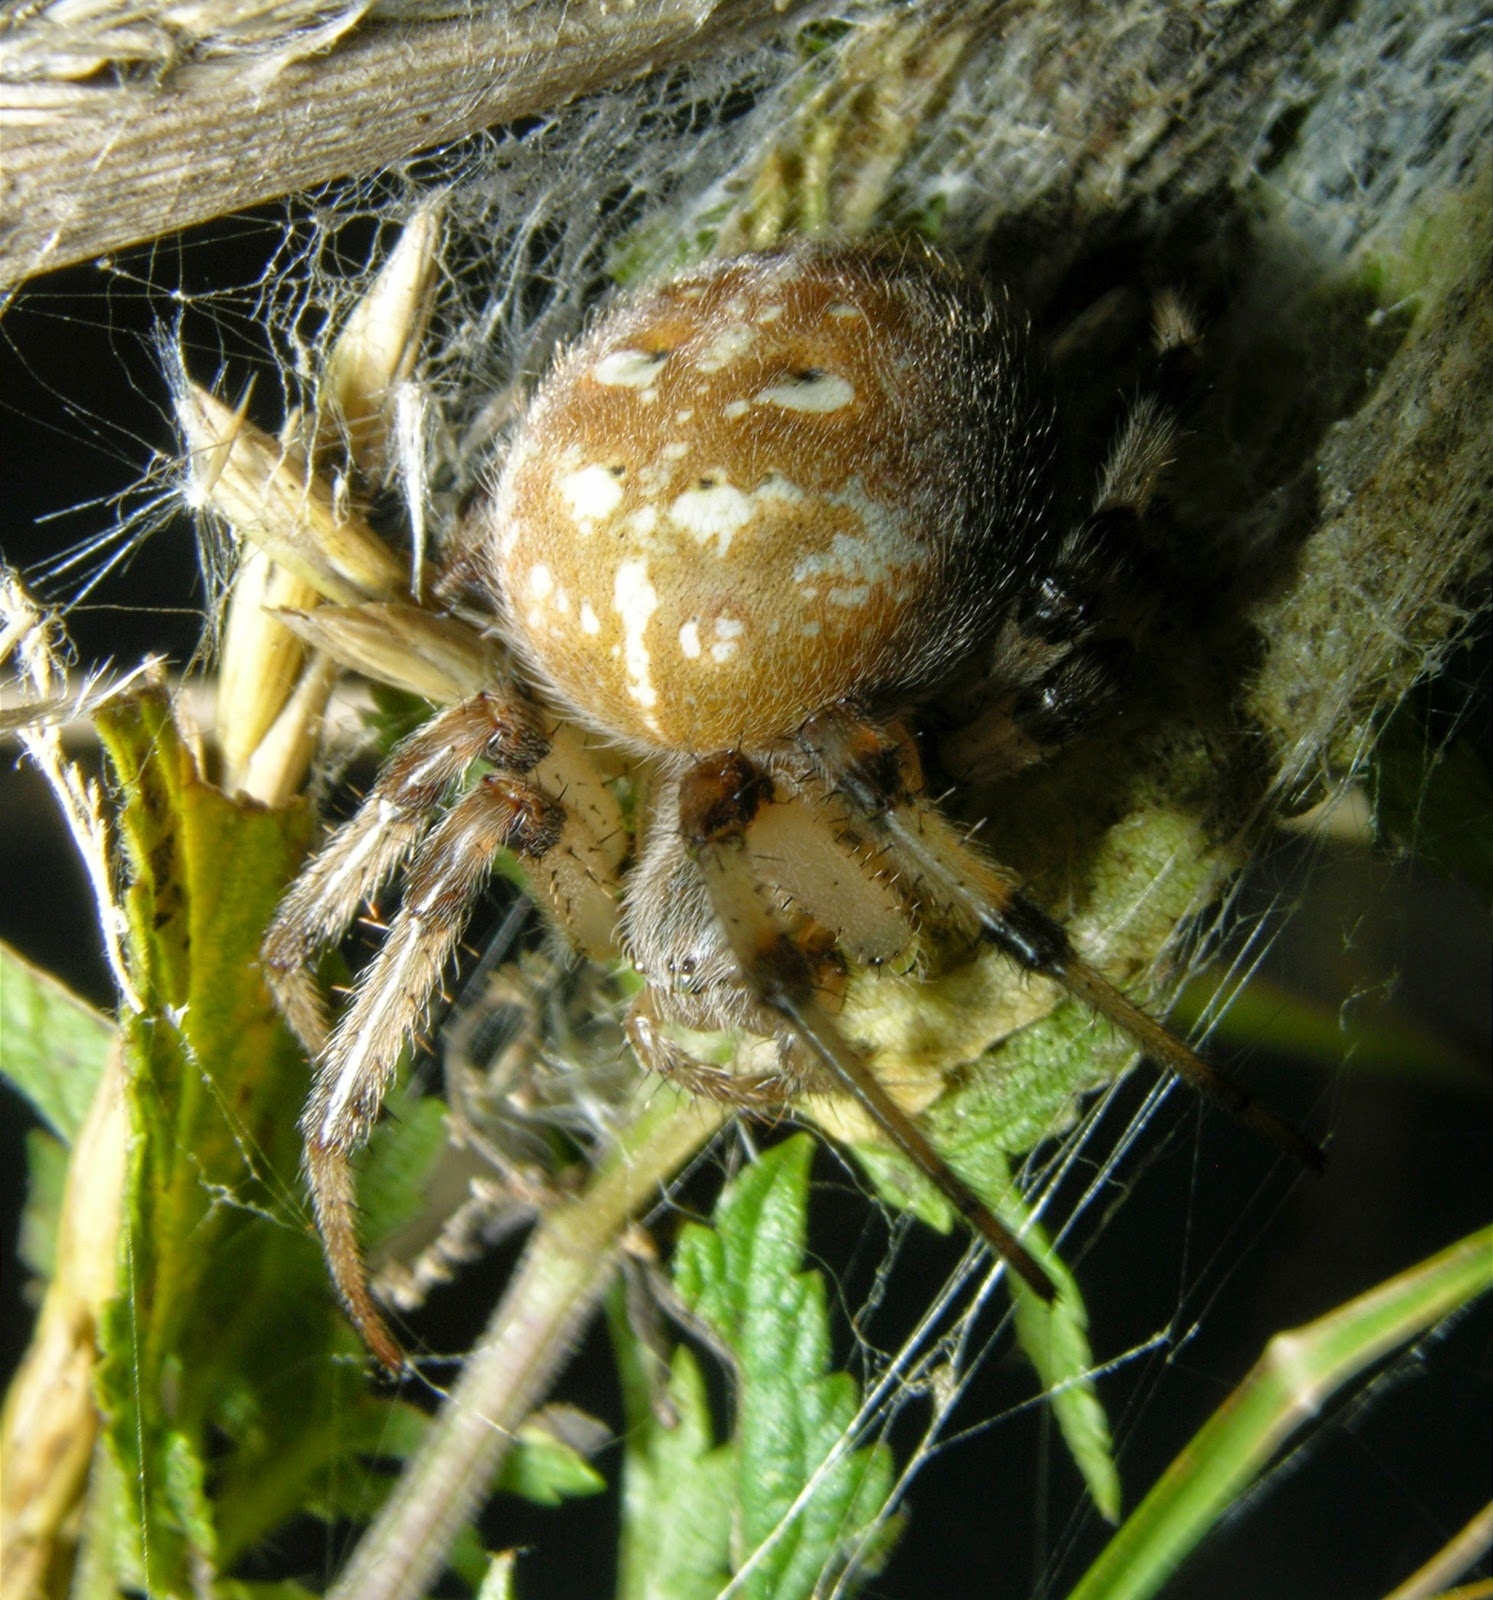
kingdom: Animalia
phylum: Arthropoda
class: Arachnida
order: Araneae
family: Araneidae
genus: Araneus
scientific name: Araneus quadratus
